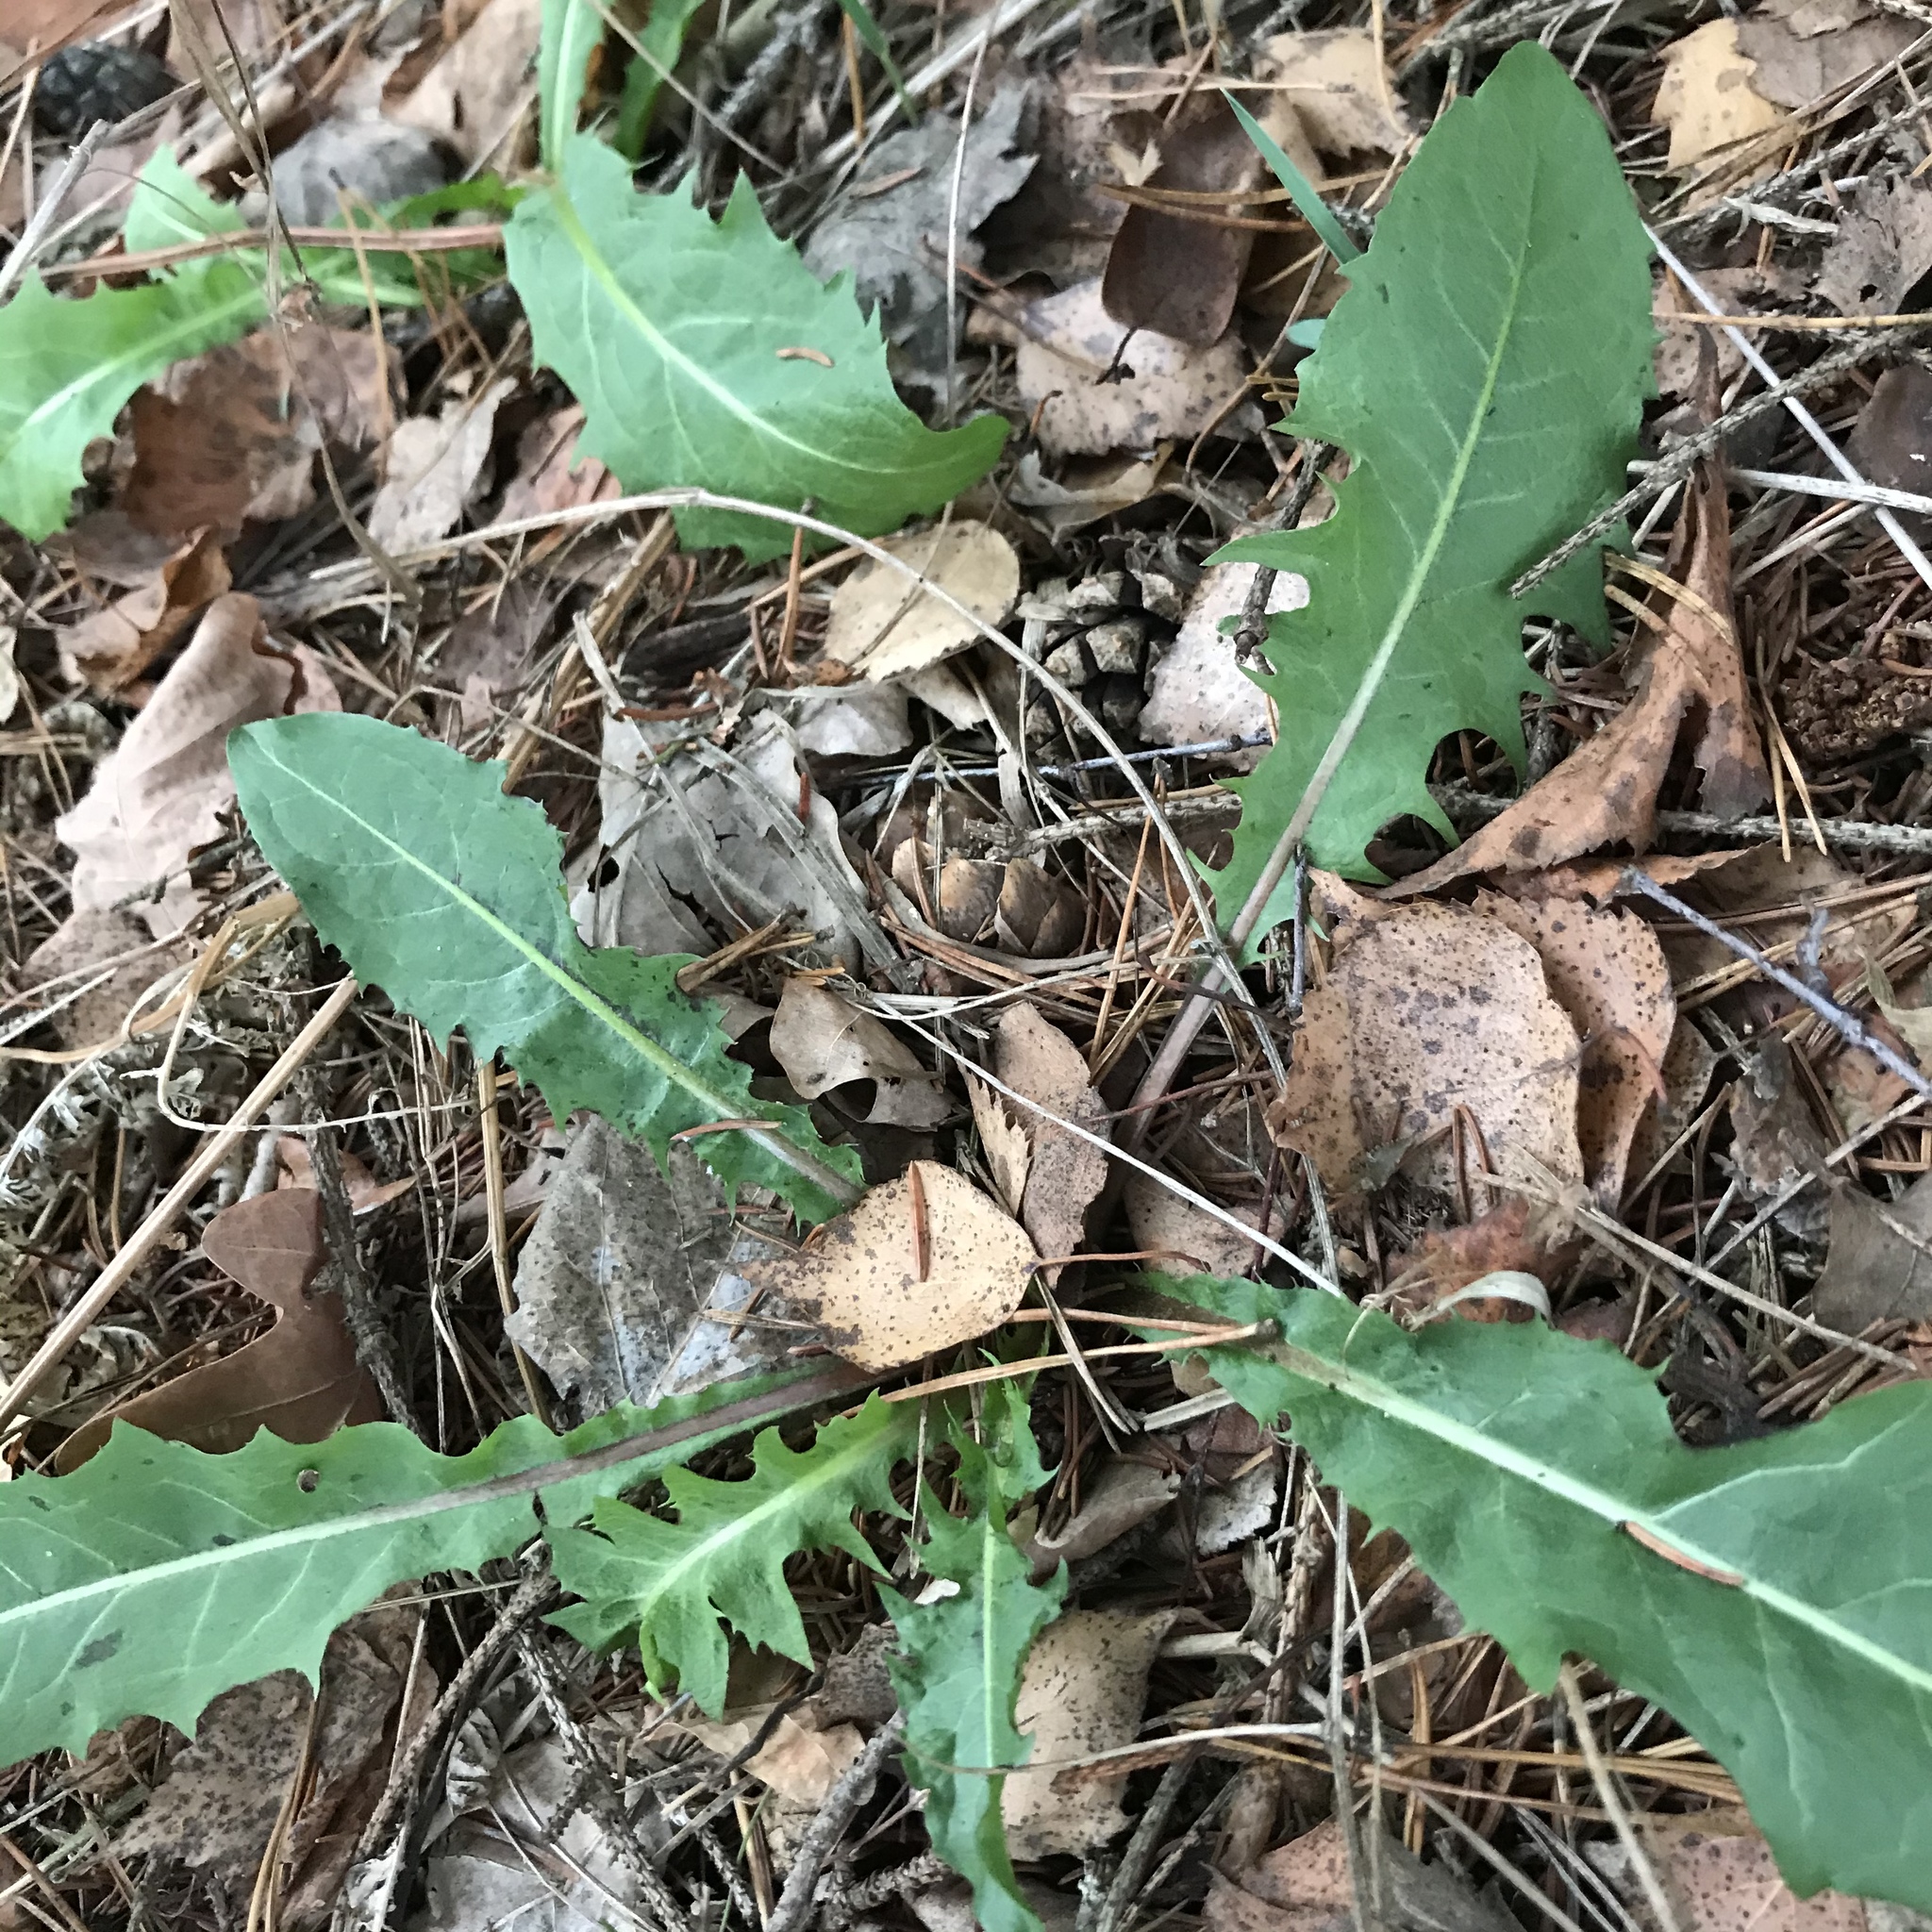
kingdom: Plantae
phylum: Tracheophyta
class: Magnoliopsida
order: Asterales
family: Asteraceae
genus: Taraxacum
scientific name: Taraxacum officinale
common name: Common dandelion
